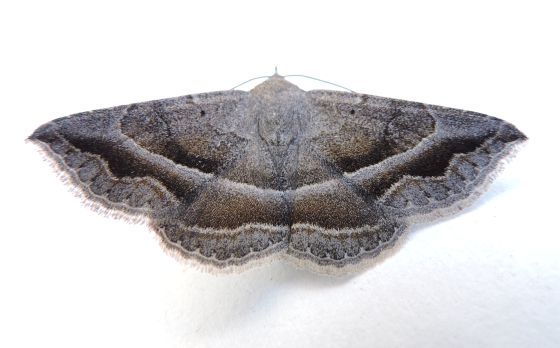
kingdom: Animalia
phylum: Arthropoda
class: Insecta
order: Lepidoptera
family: Erebidae
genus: Lesmone
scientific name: Lesmone griseipennis
